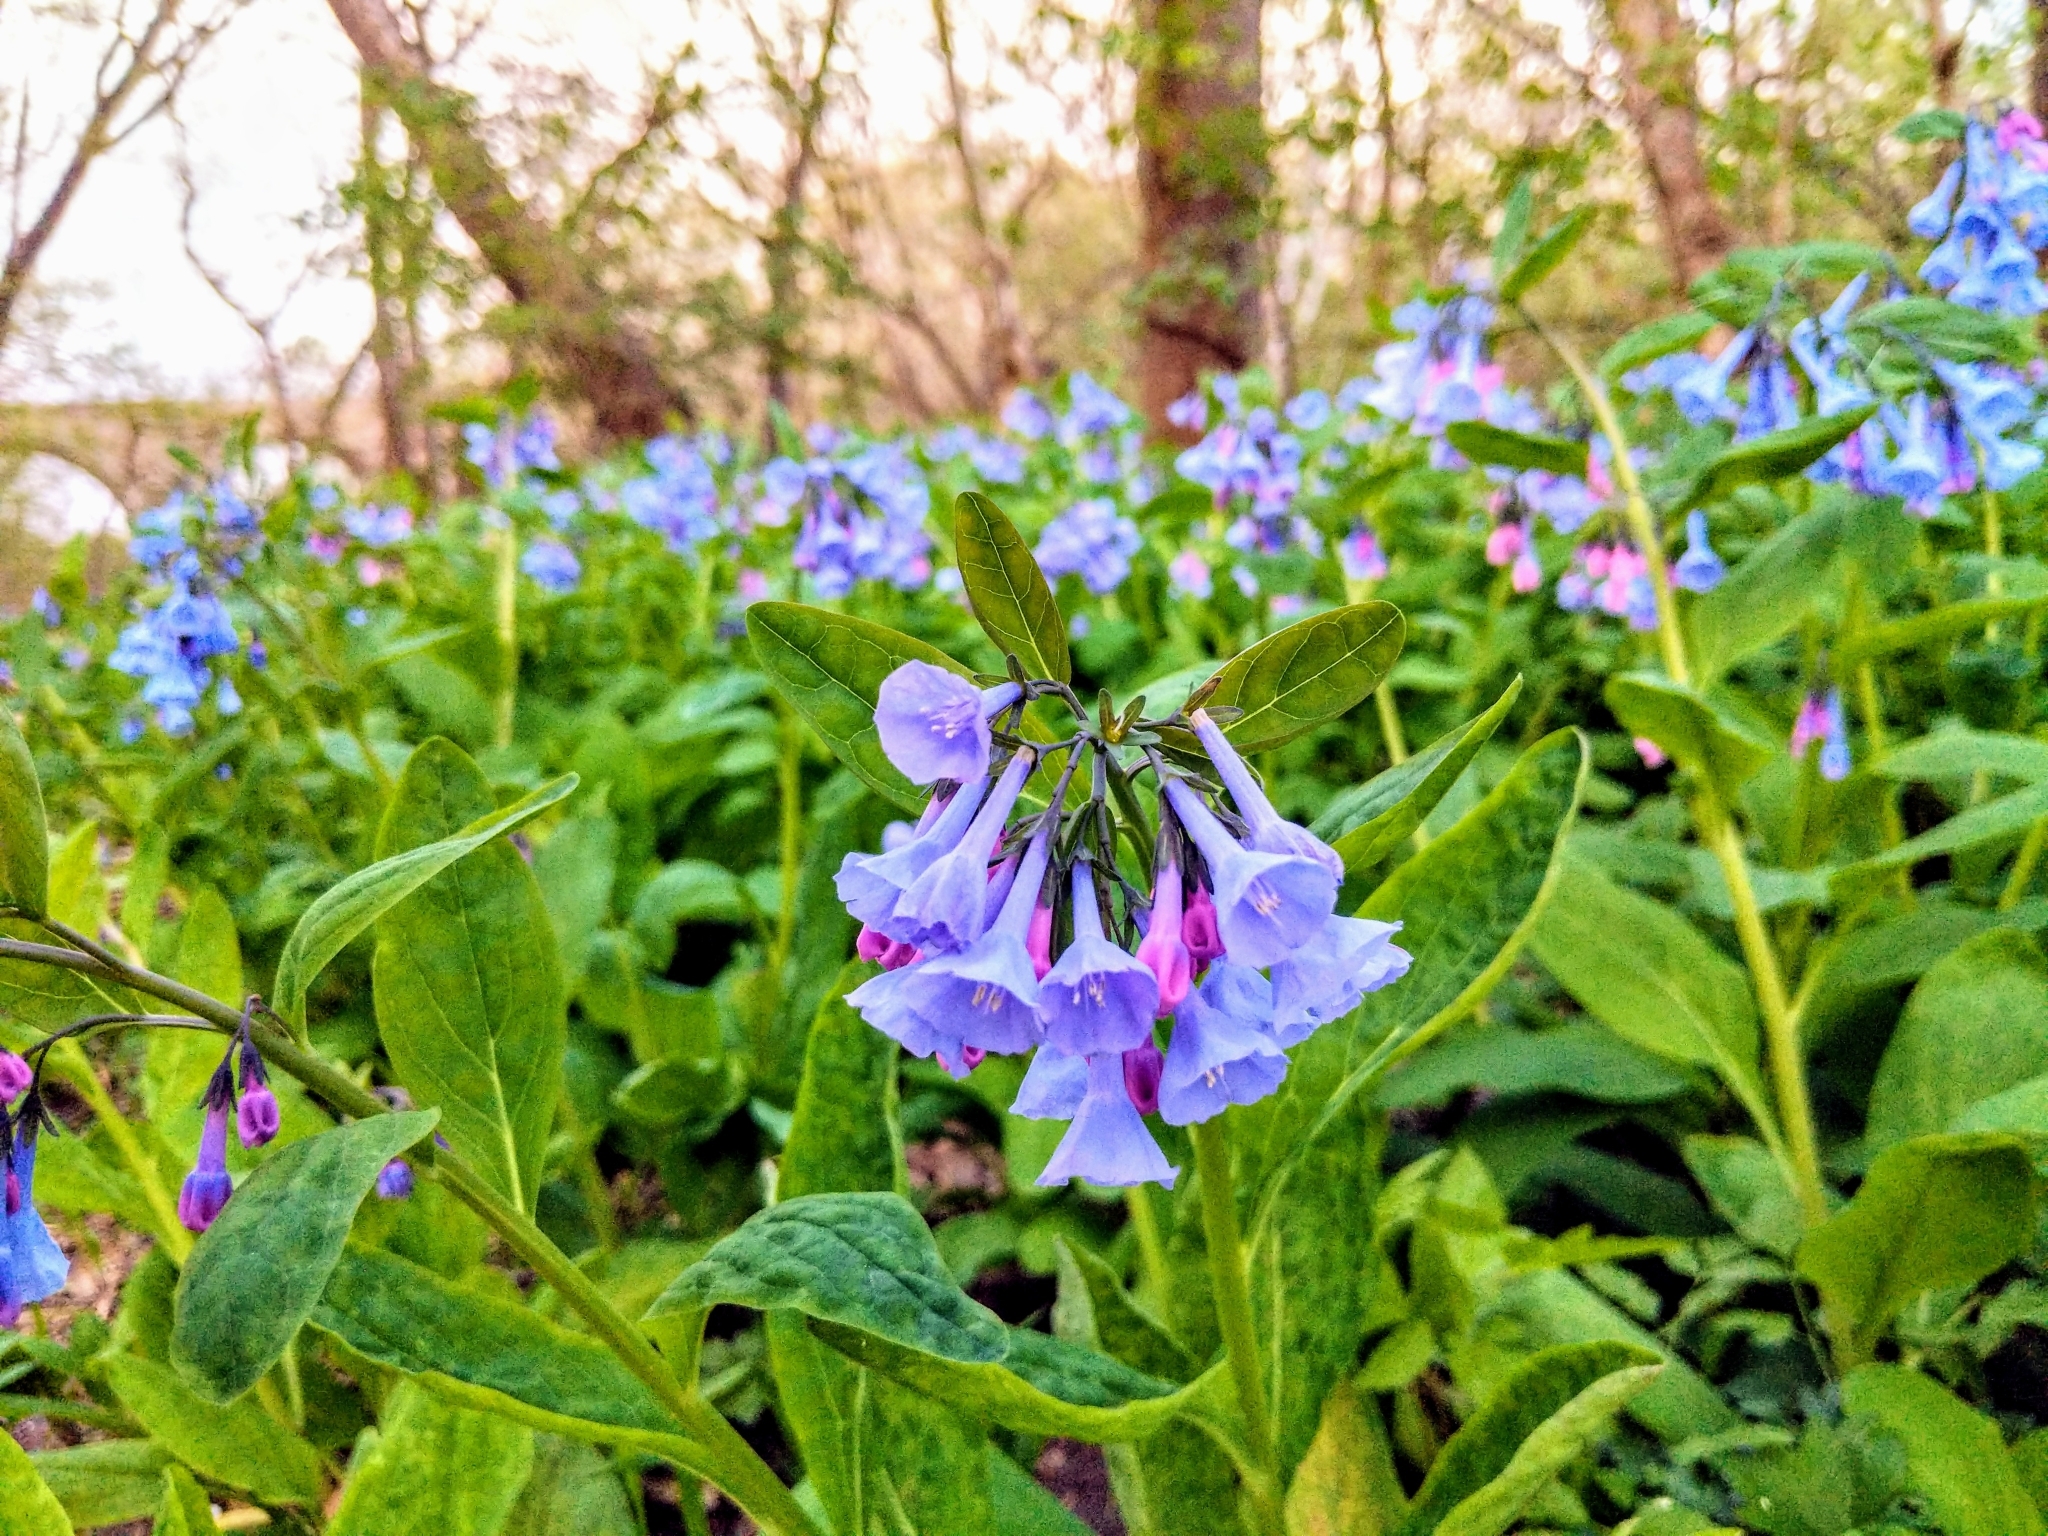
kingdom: Plantae
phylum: Tracheophyta
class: Magnoliopsida
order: Boraginales
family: Boraginaceae
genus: Mertensia
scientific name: Mertensia virginica
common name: Virginia bluebells
